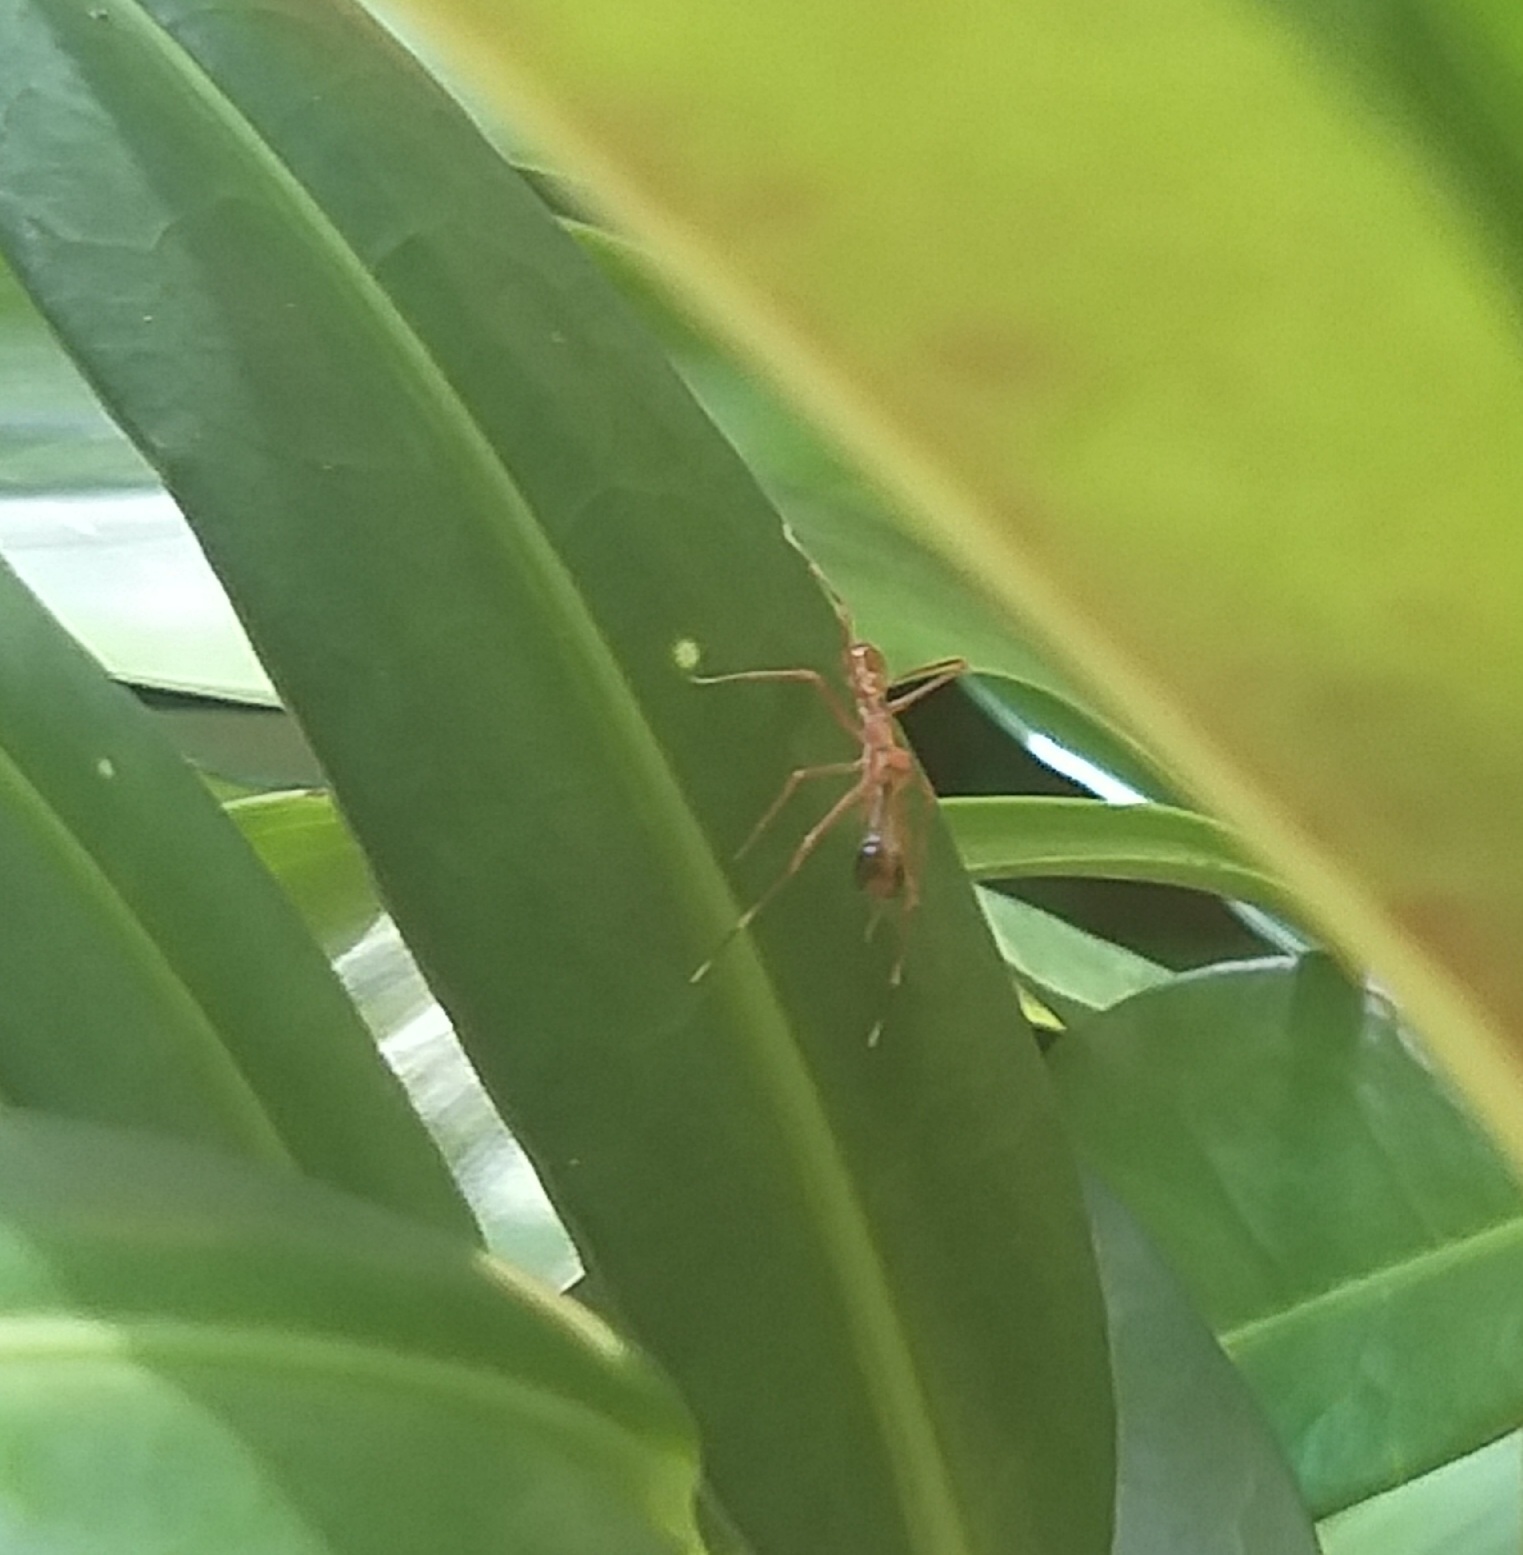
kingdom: Animalia
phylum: Arthropoda
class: Arachnida
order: Araneae
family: Salticidae
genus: Myrmaplata
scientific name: Myrmaplata plataleoides
